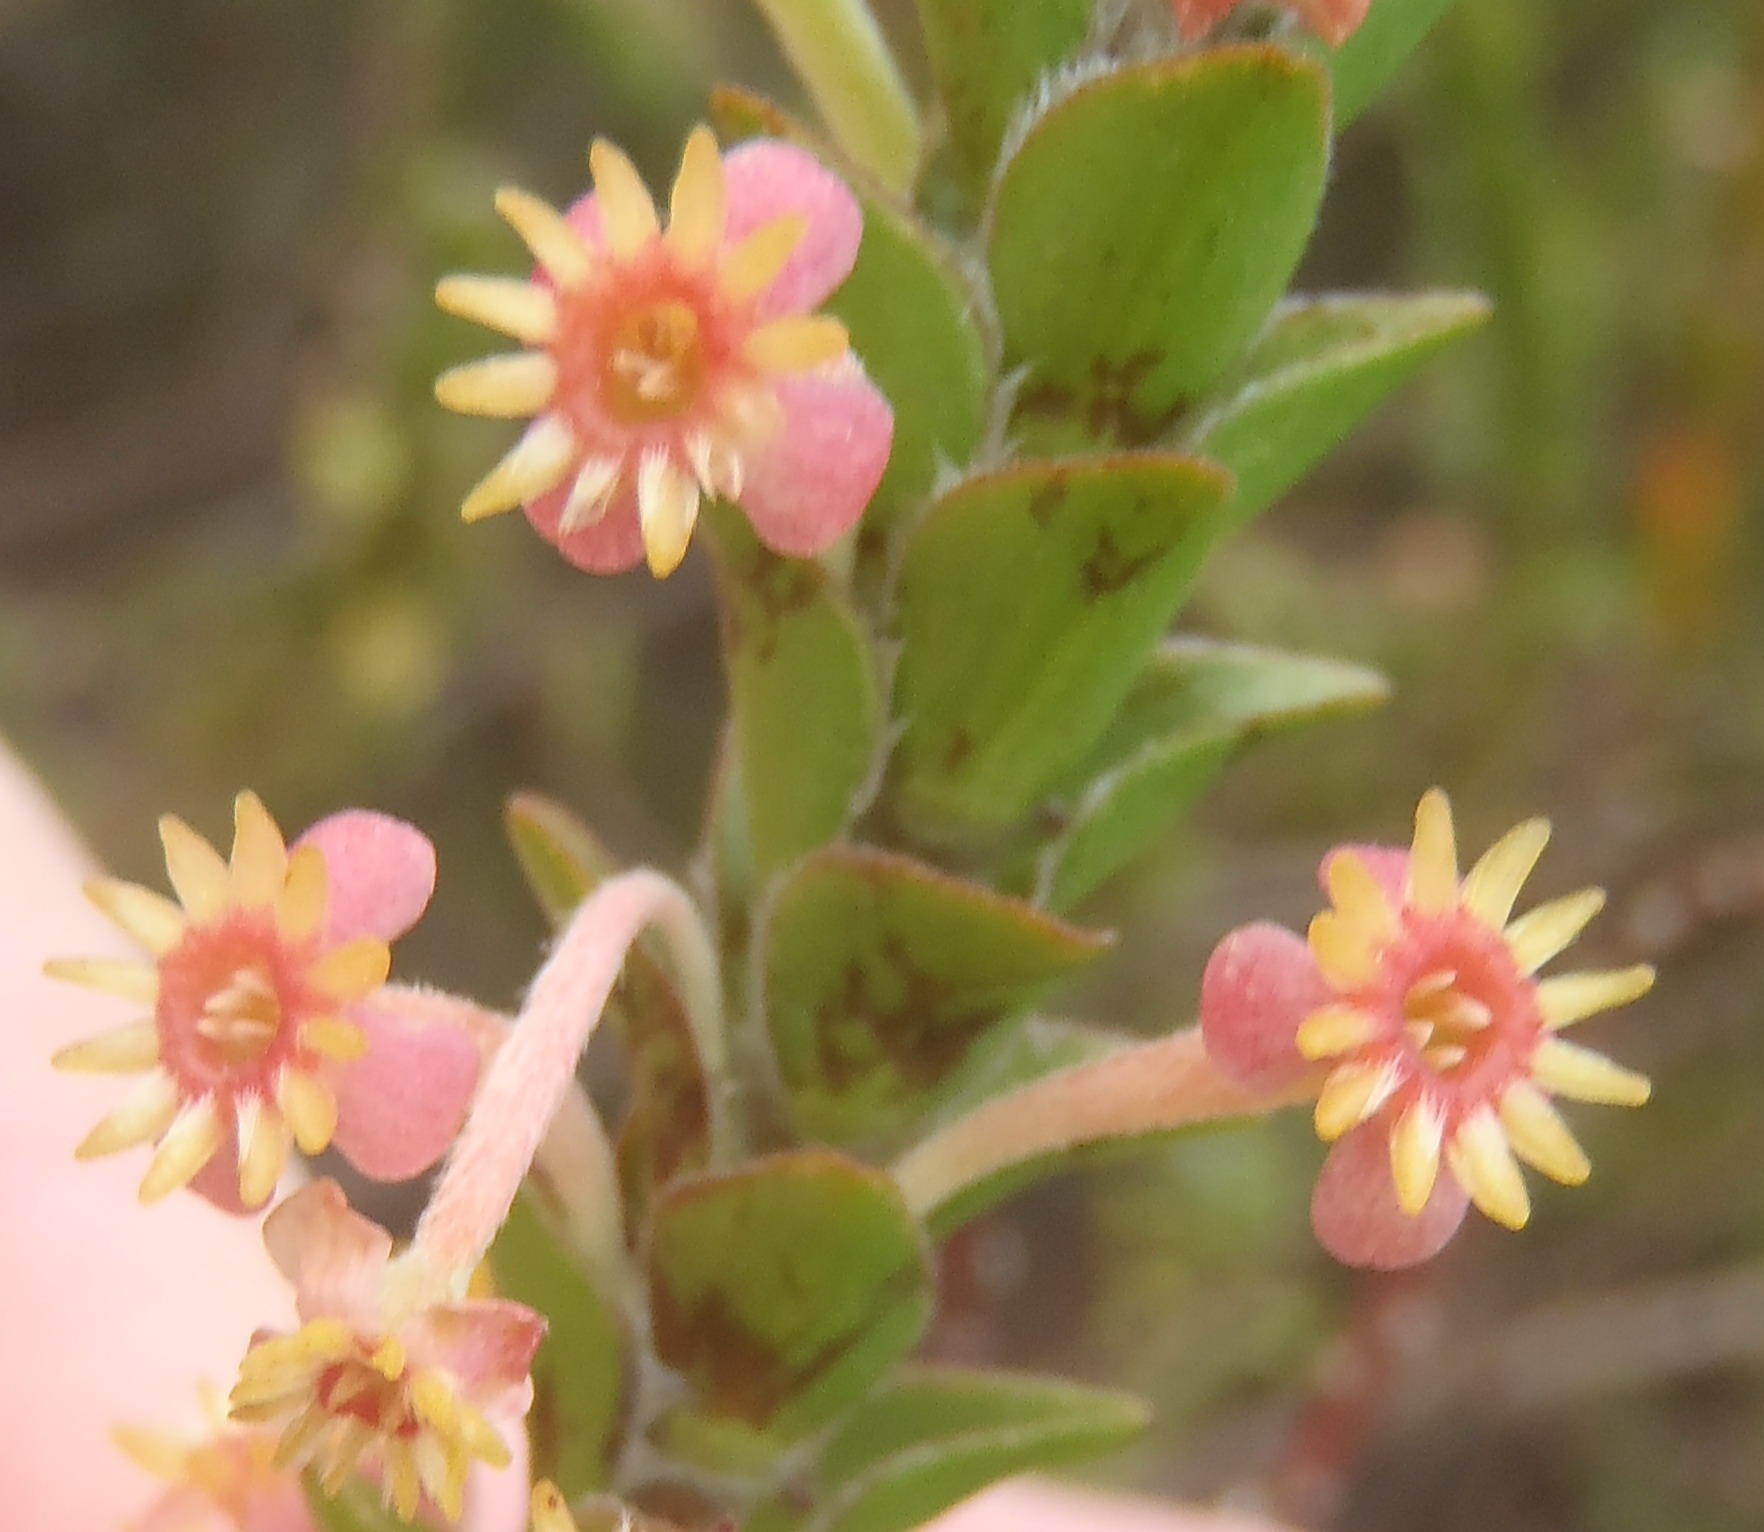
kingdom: Plantae
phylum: Tracheophyta
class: Magnoliopsida
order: Malvales
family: Thymelaeaceae
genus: Struthiola
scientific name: Struthiola argentea
